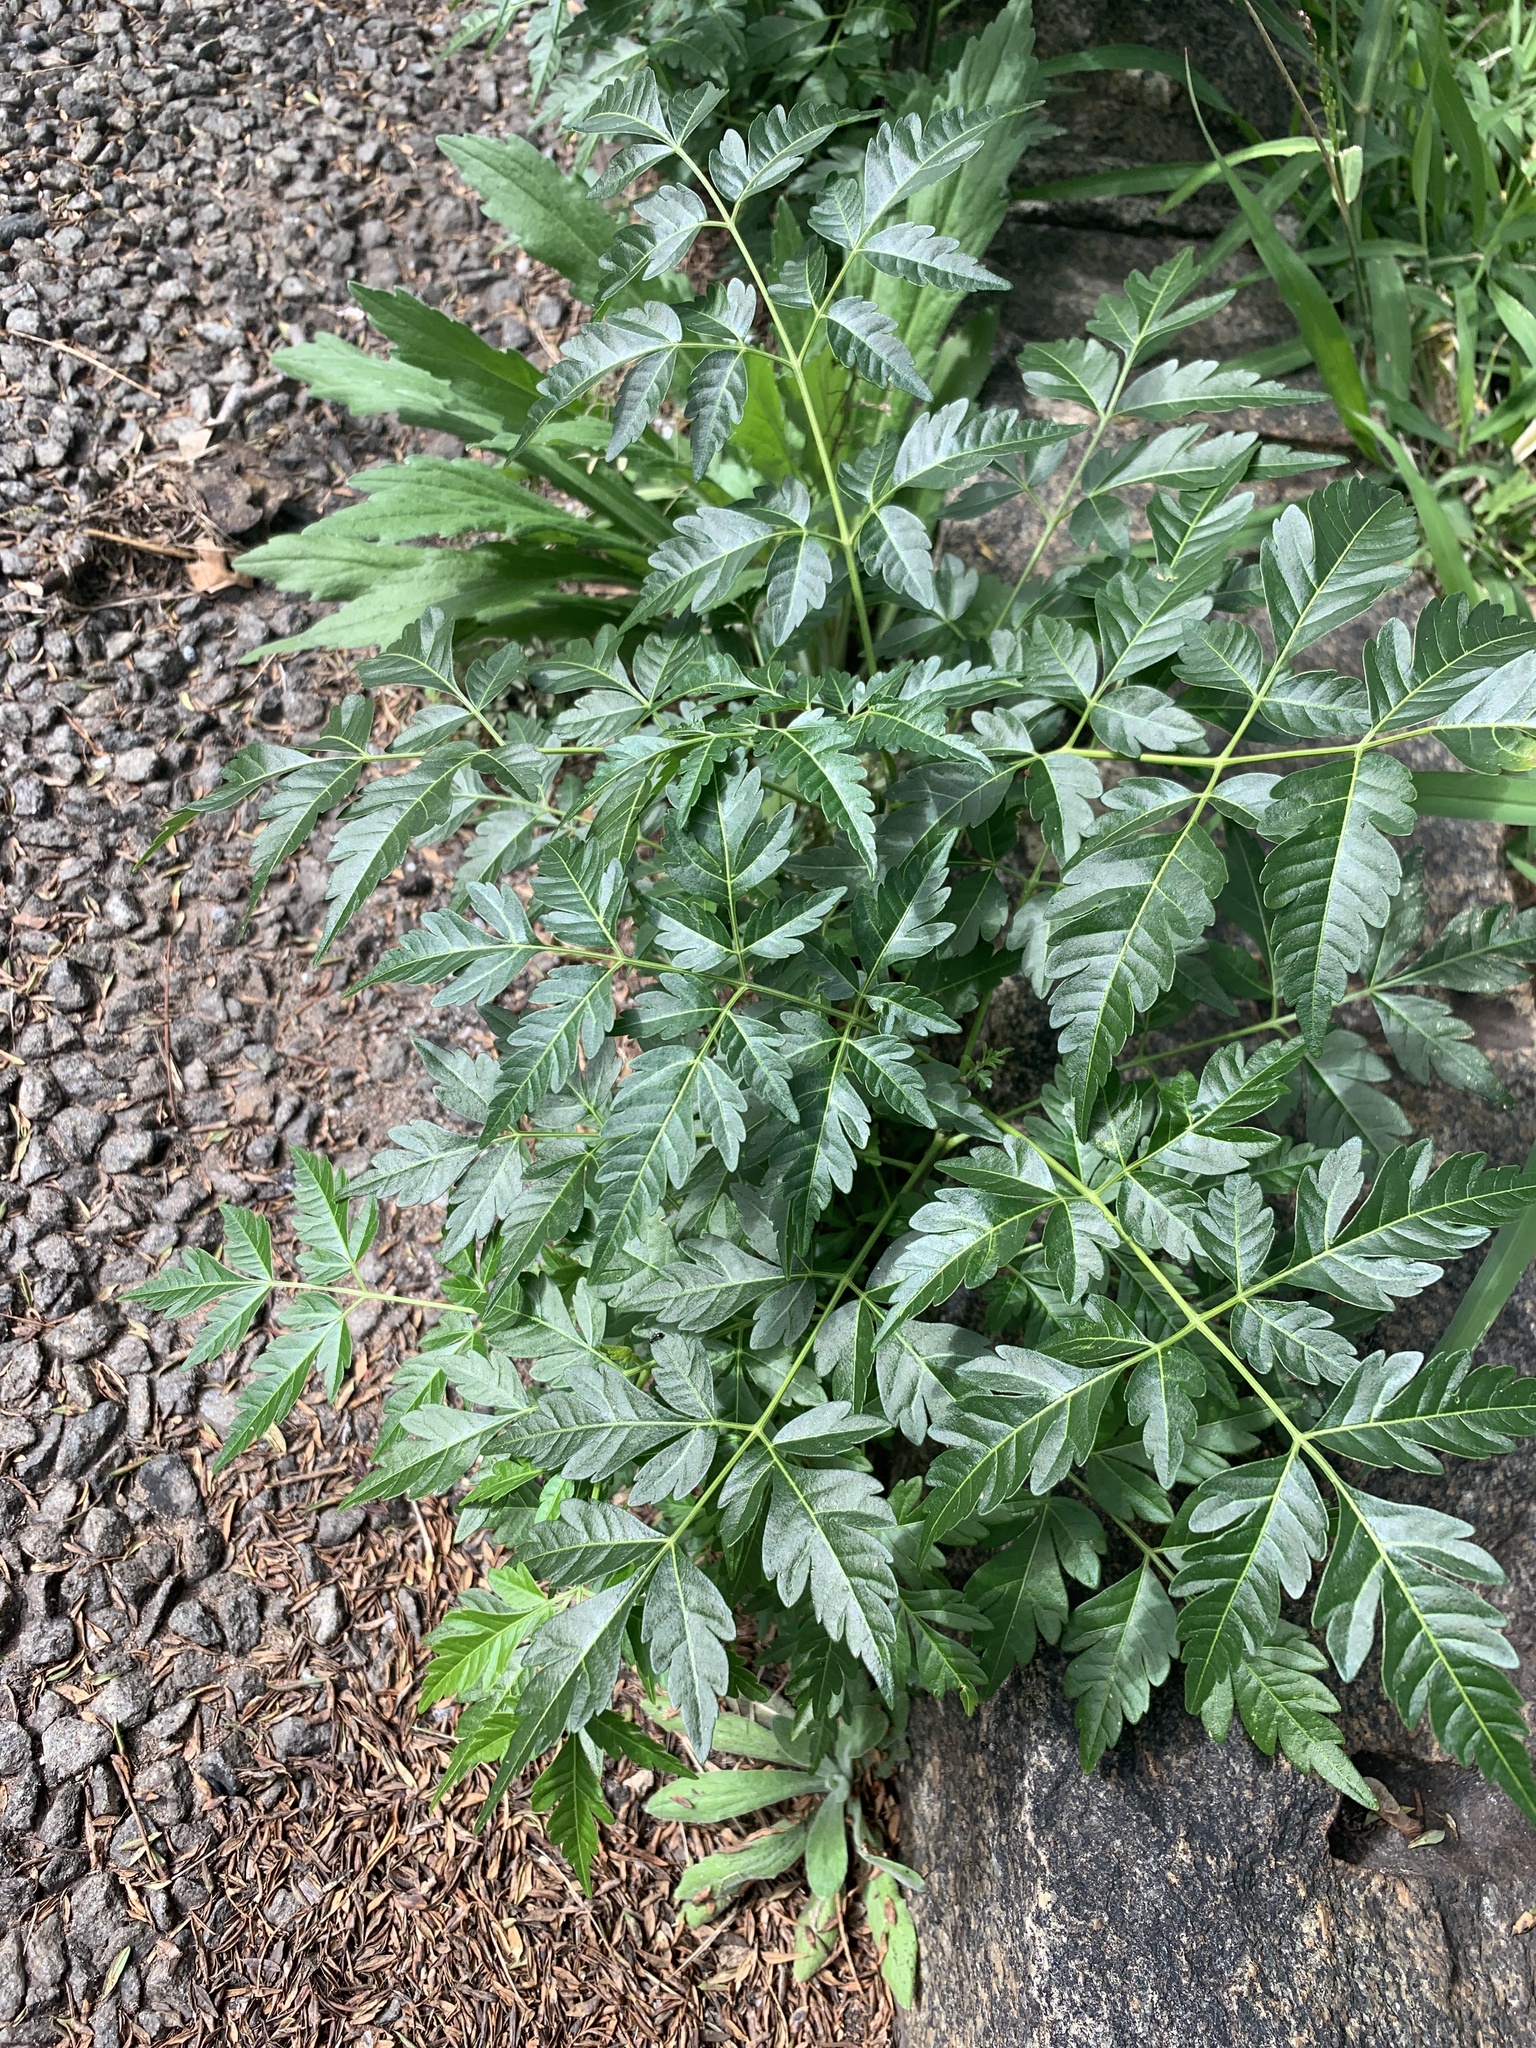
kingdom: Plantae
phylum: Tracheophyta
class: Magnoliopsida
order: Sapindales
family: Meliaceae
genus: Melia
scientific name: Melia azedarach
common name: Chinaberrytree
